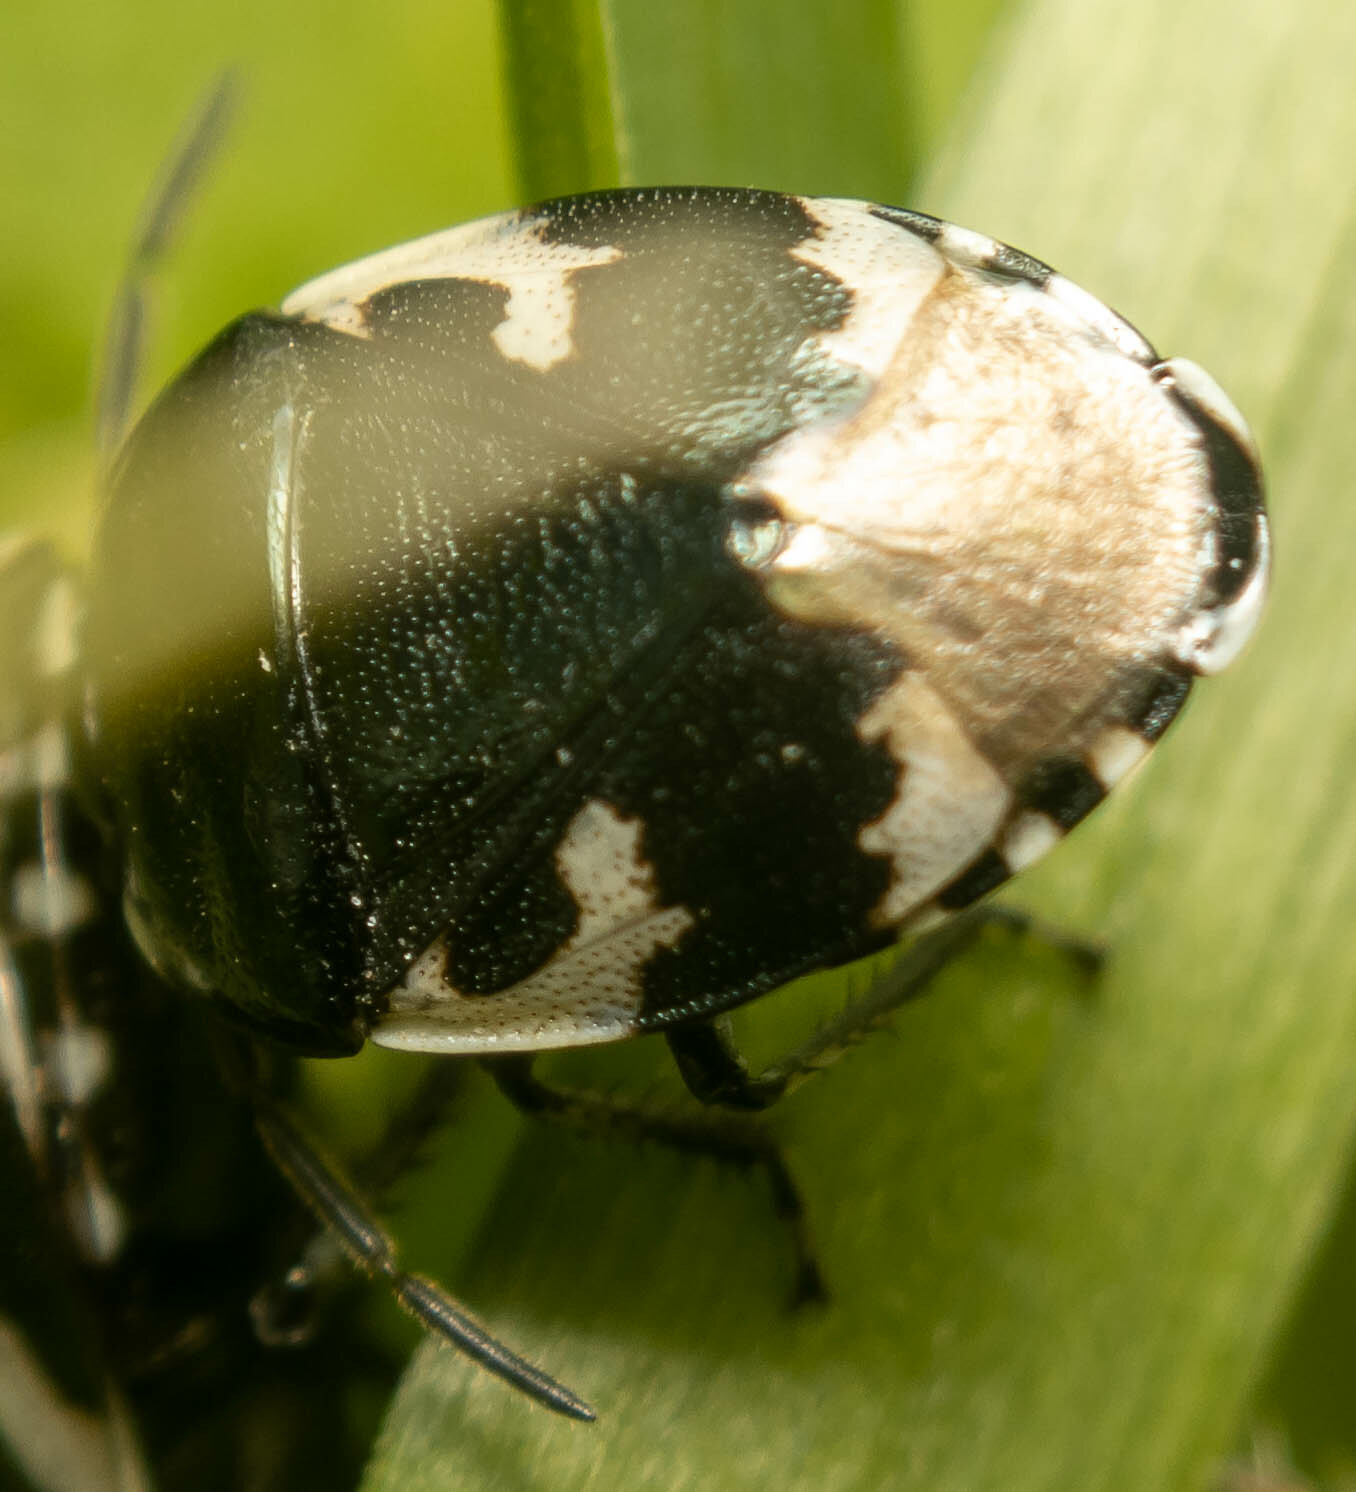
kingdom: Animalia
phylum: Arthropoda
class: Insecta
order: Hemiptera
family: Cydnidae
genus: Tritomegas
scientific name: Tritomegas bicolor
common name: Pied shieldbug
